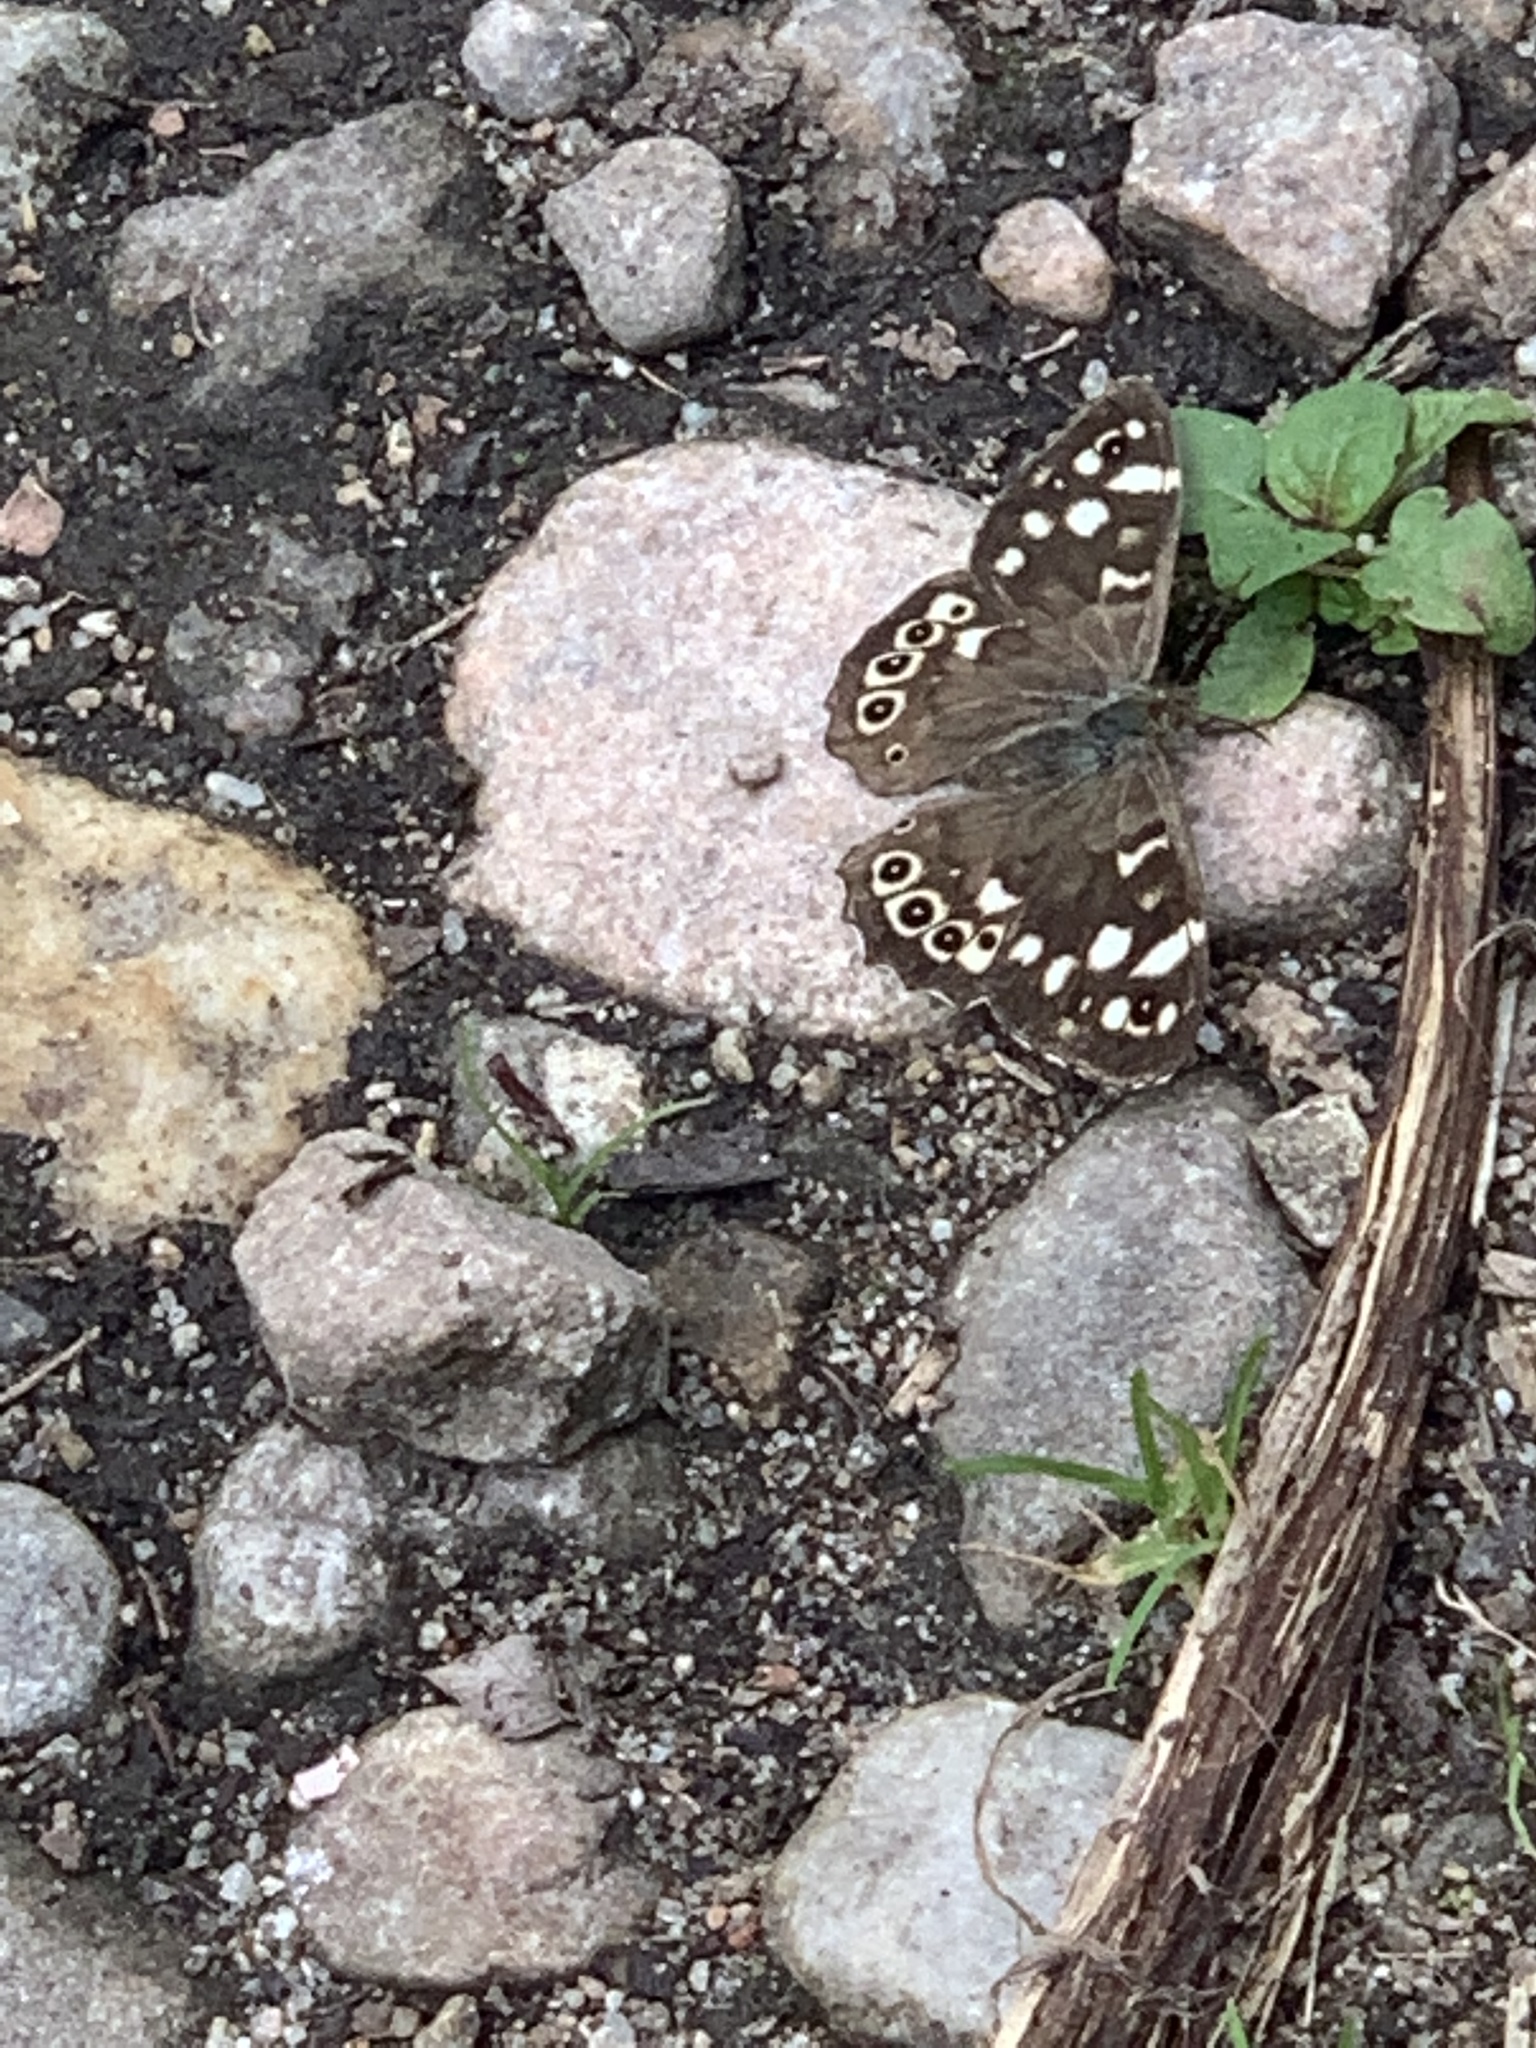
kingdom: Animalia
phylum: Arthropoda
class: Insecta
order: Lepidoptera
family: Nymphalidae
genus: Pararge
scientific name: Pararge aegeria
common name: Speckled wood
